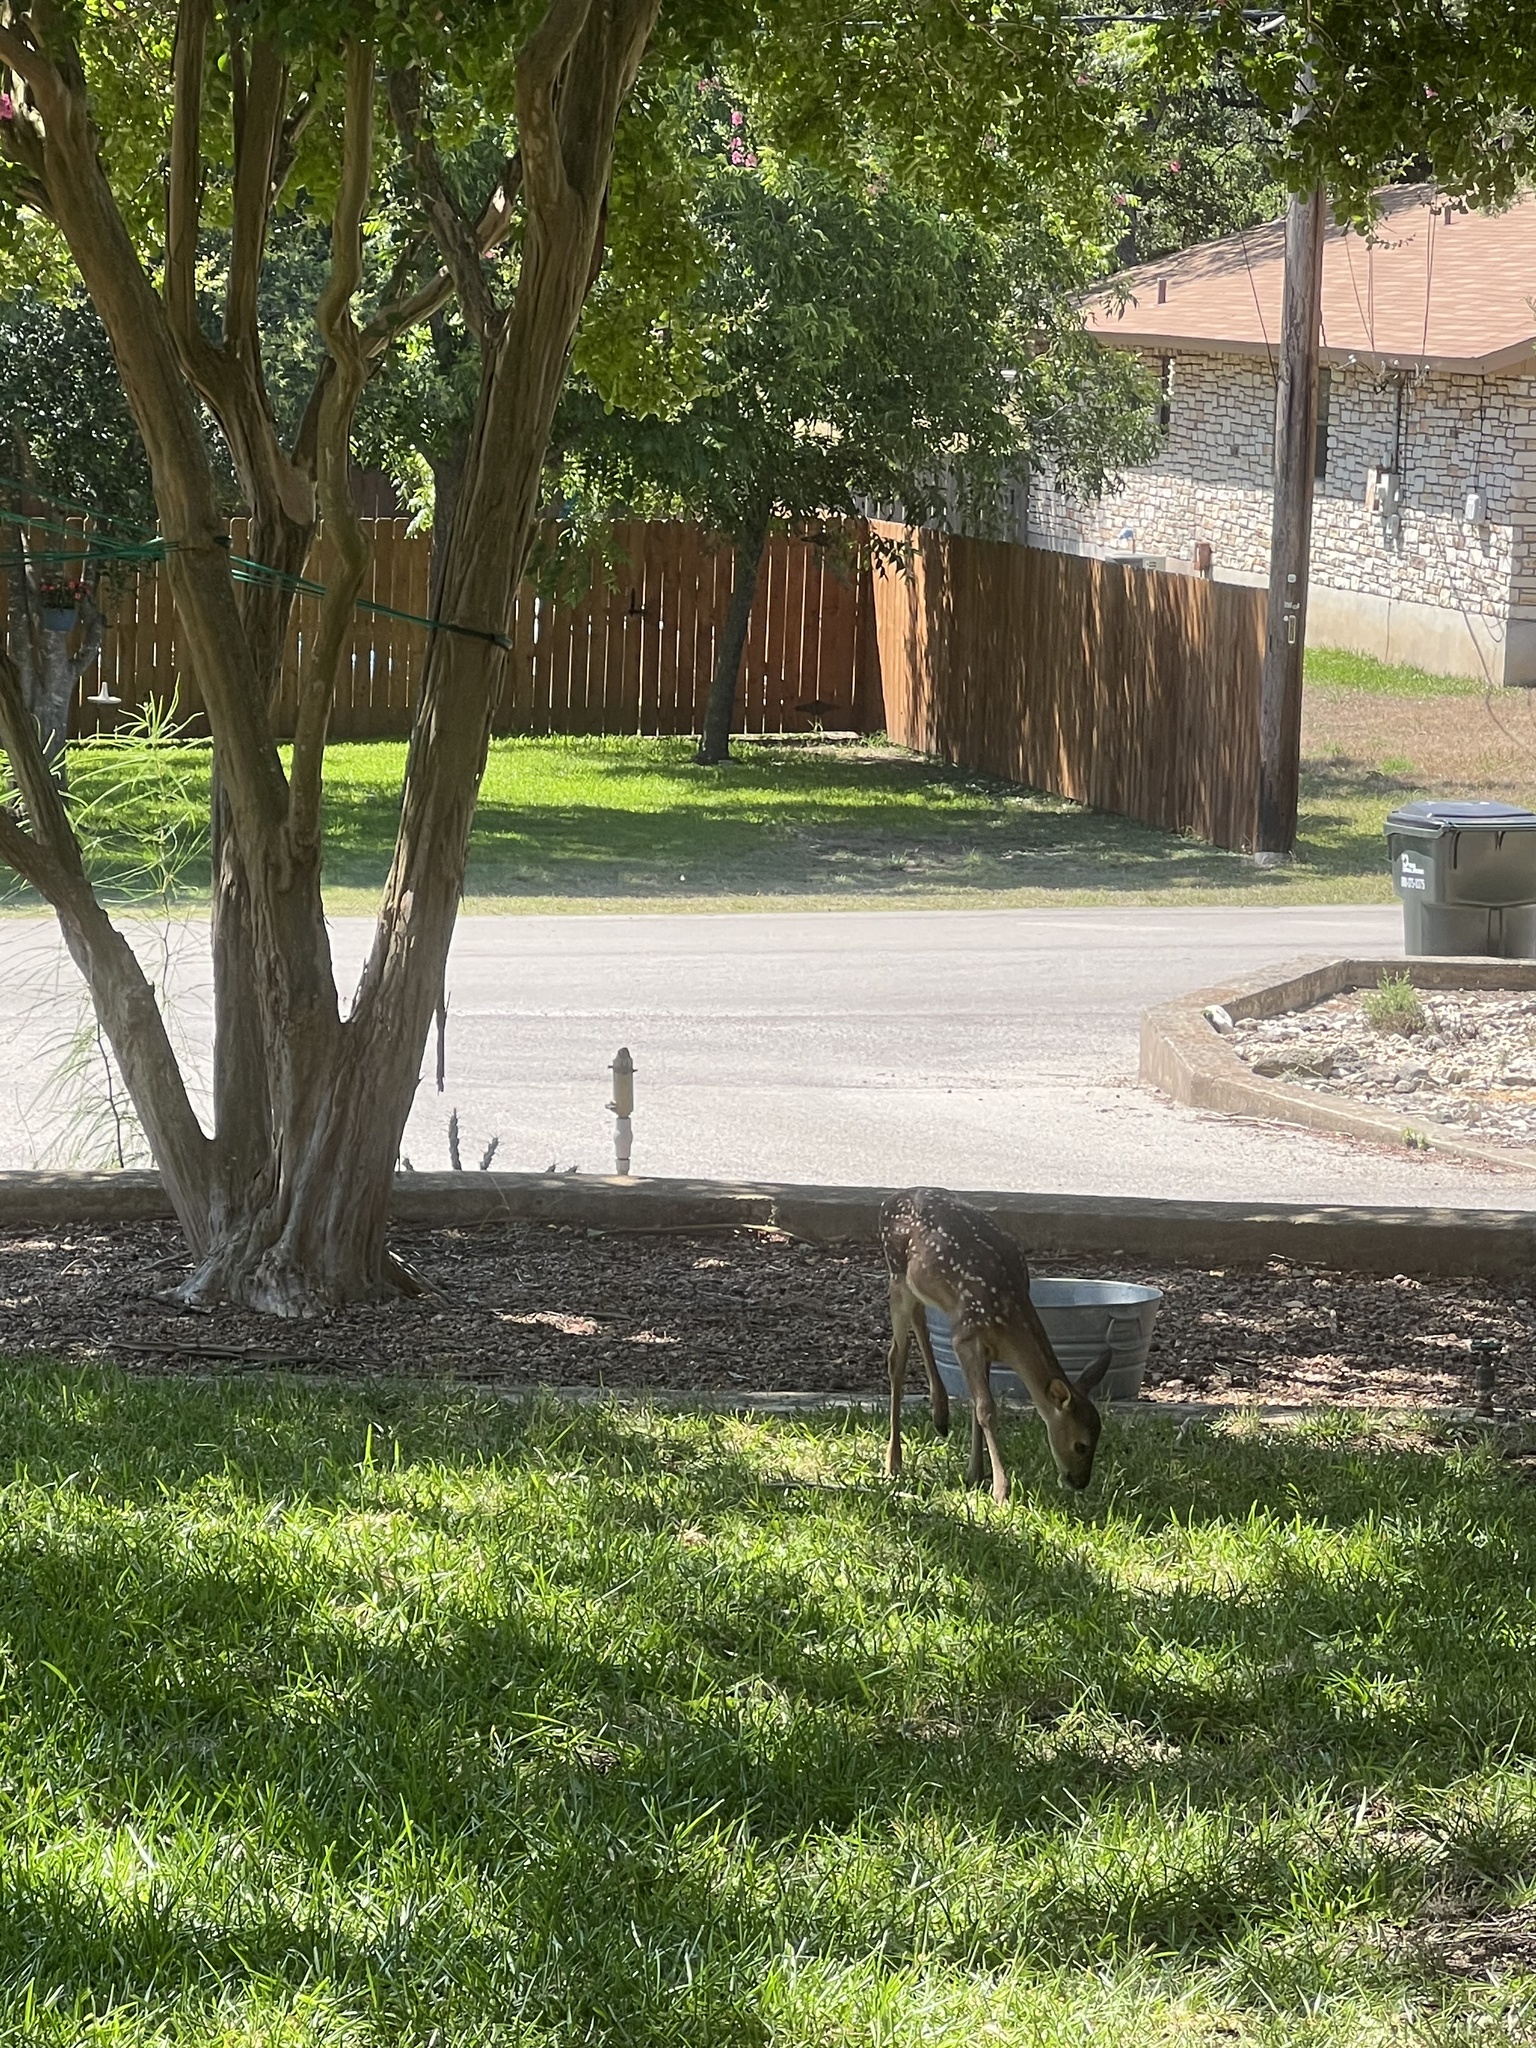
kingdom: Animalia
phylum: Chordata
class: Mammalia
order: Artiodactyla
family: Cervidae
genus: Odocoileus
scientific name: Odocoileus virginianus
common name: White-tailed deer
